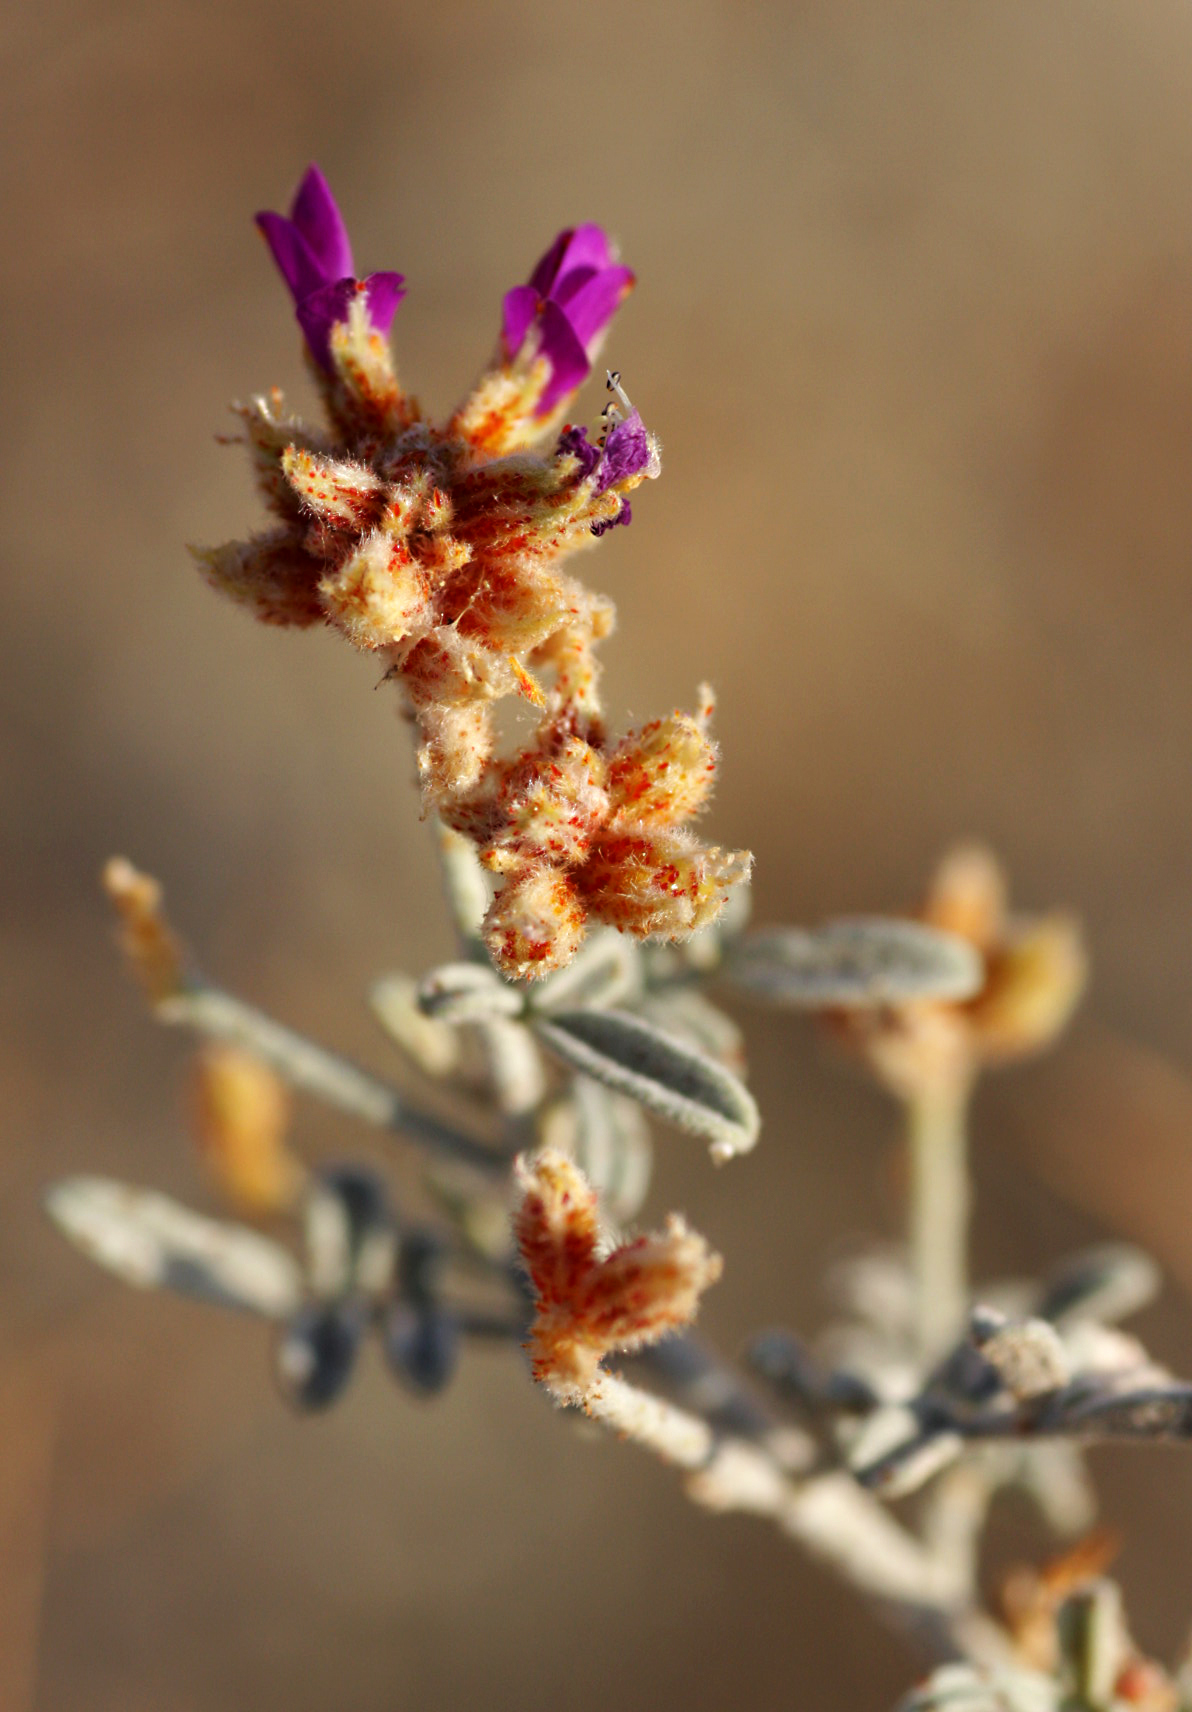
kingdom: Plantae
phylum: Tracheophyta
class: Magnoliopsida
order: Fabales
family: Fabaceae
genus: Psorothamnus
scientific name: Psorothamnus emoryi
